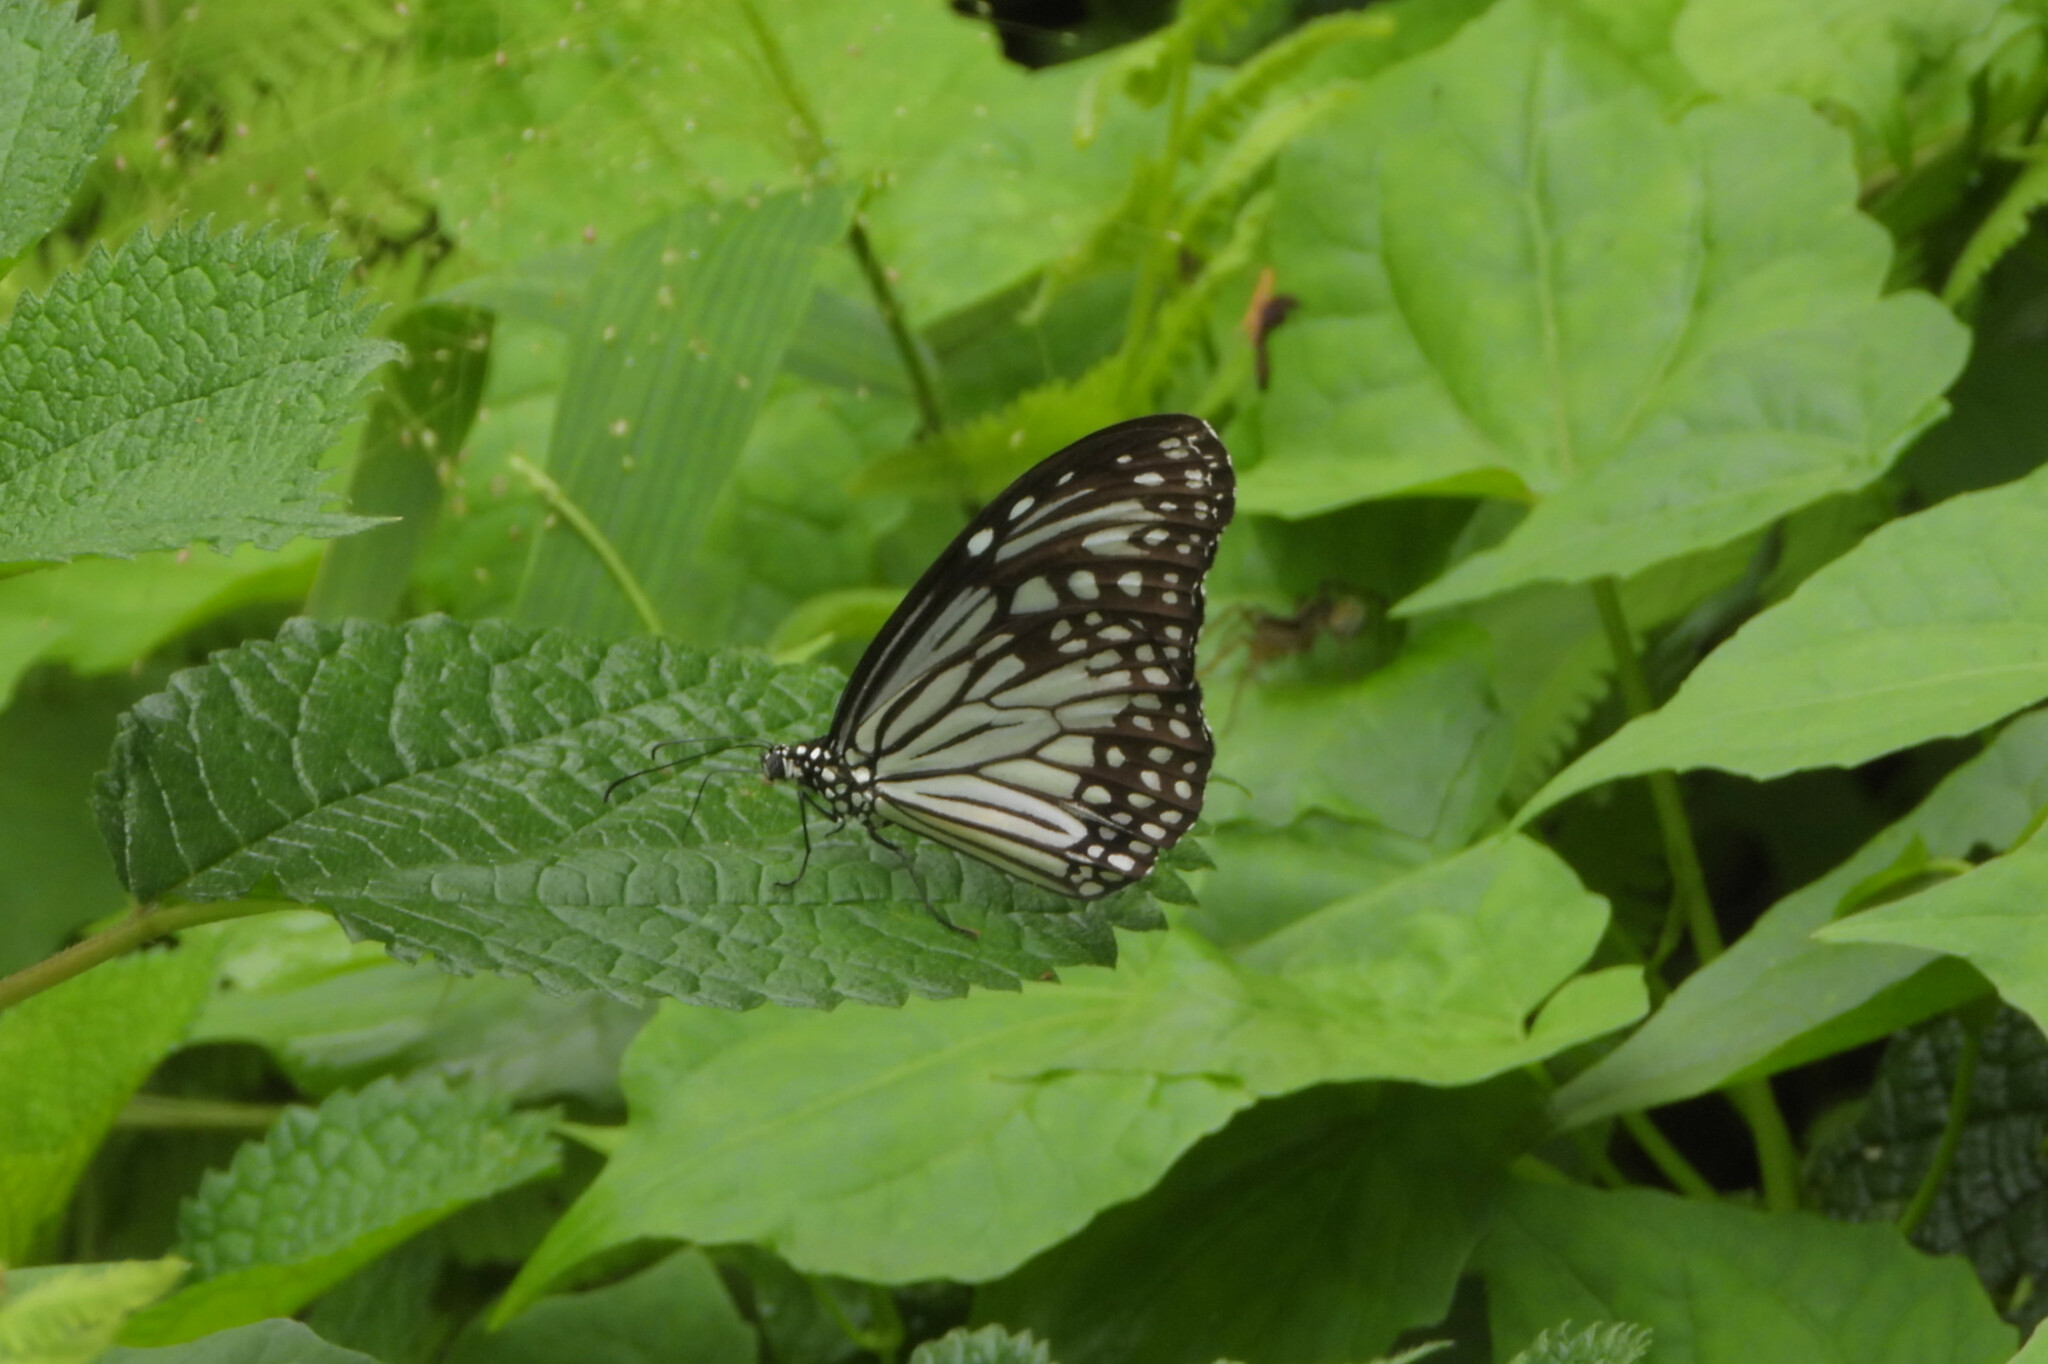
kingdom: Animalia
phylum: Arthropoda
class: Insecta
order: Lepidoptera
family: Nymphalidae
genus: Parantica
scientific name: Parantica aglea
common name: Glassy tiger
